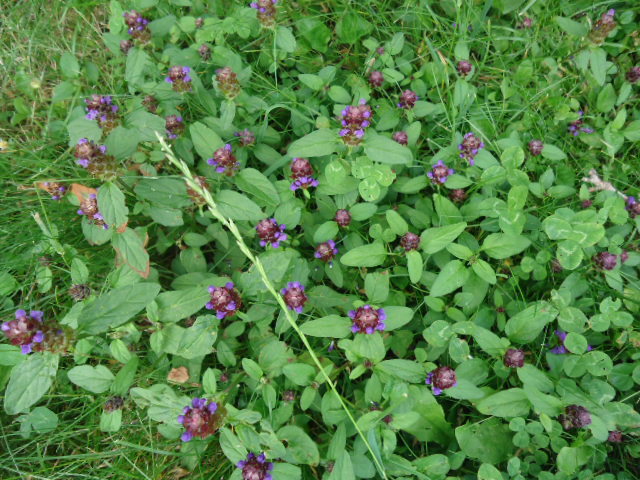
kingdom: Plantae
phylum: Tracheophyta
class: Magnoliopsida
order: Lamiales
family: Lamiaceae
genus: Prunella
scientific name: Prunella vulgaris
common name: Heal-all
